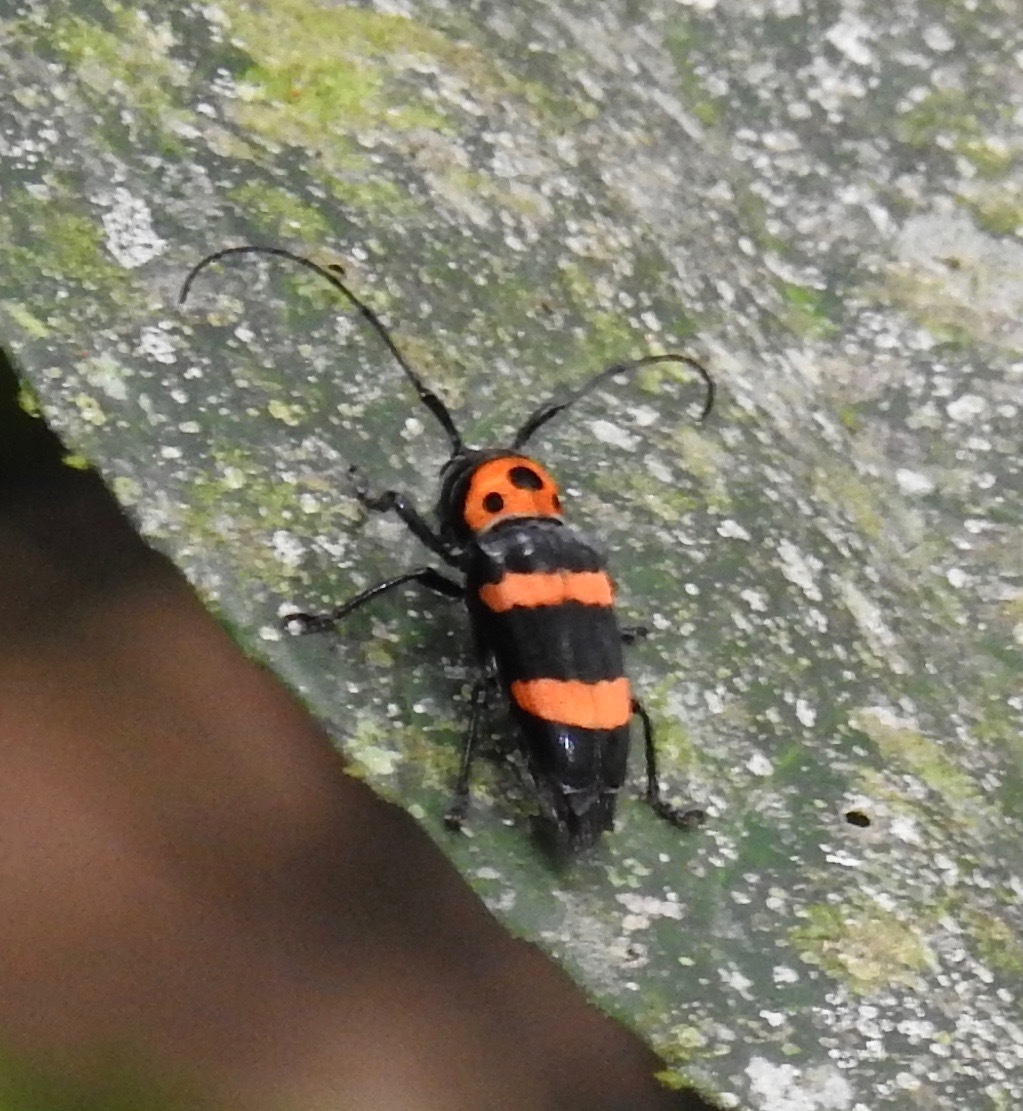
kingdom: Animalia
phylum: Arthropoda
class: Insecta
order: Coleoptera
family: Cerambycidae
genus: Oedudes
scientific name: Oedudes spectabilis
